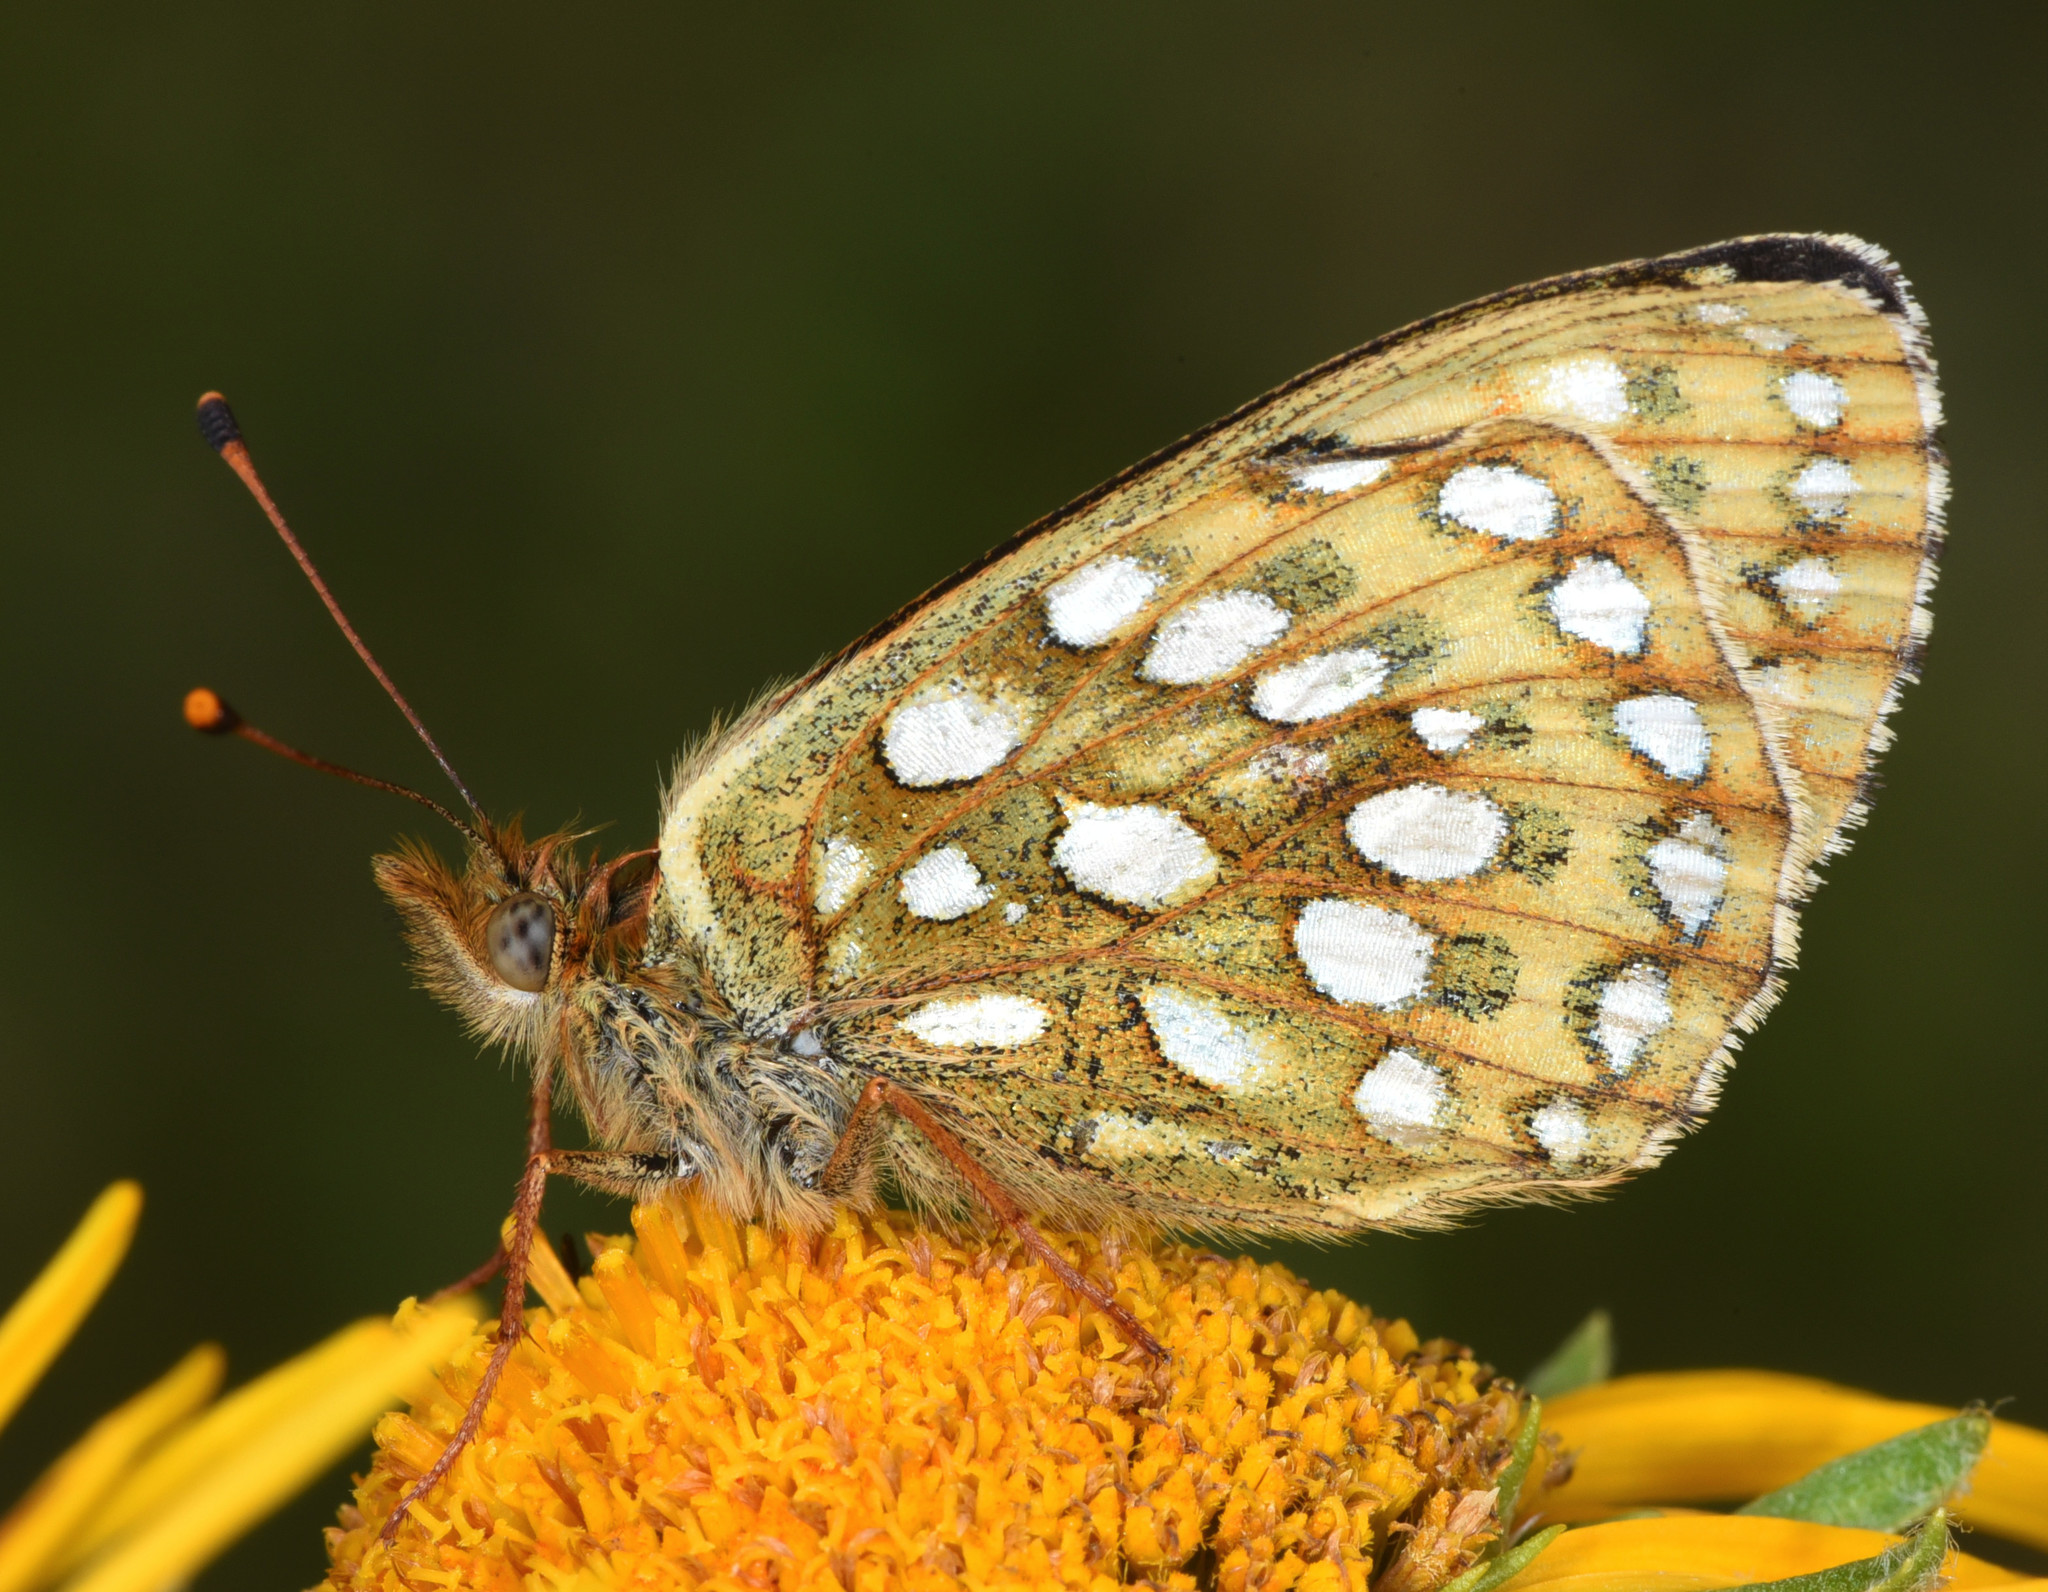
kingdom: Animalia
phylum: Arthropoda
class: Insecta
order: Lepidoptera
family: Nymphalidae
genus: Speyeria
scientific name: Speyeria mormonia
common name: Mormon fritillary
